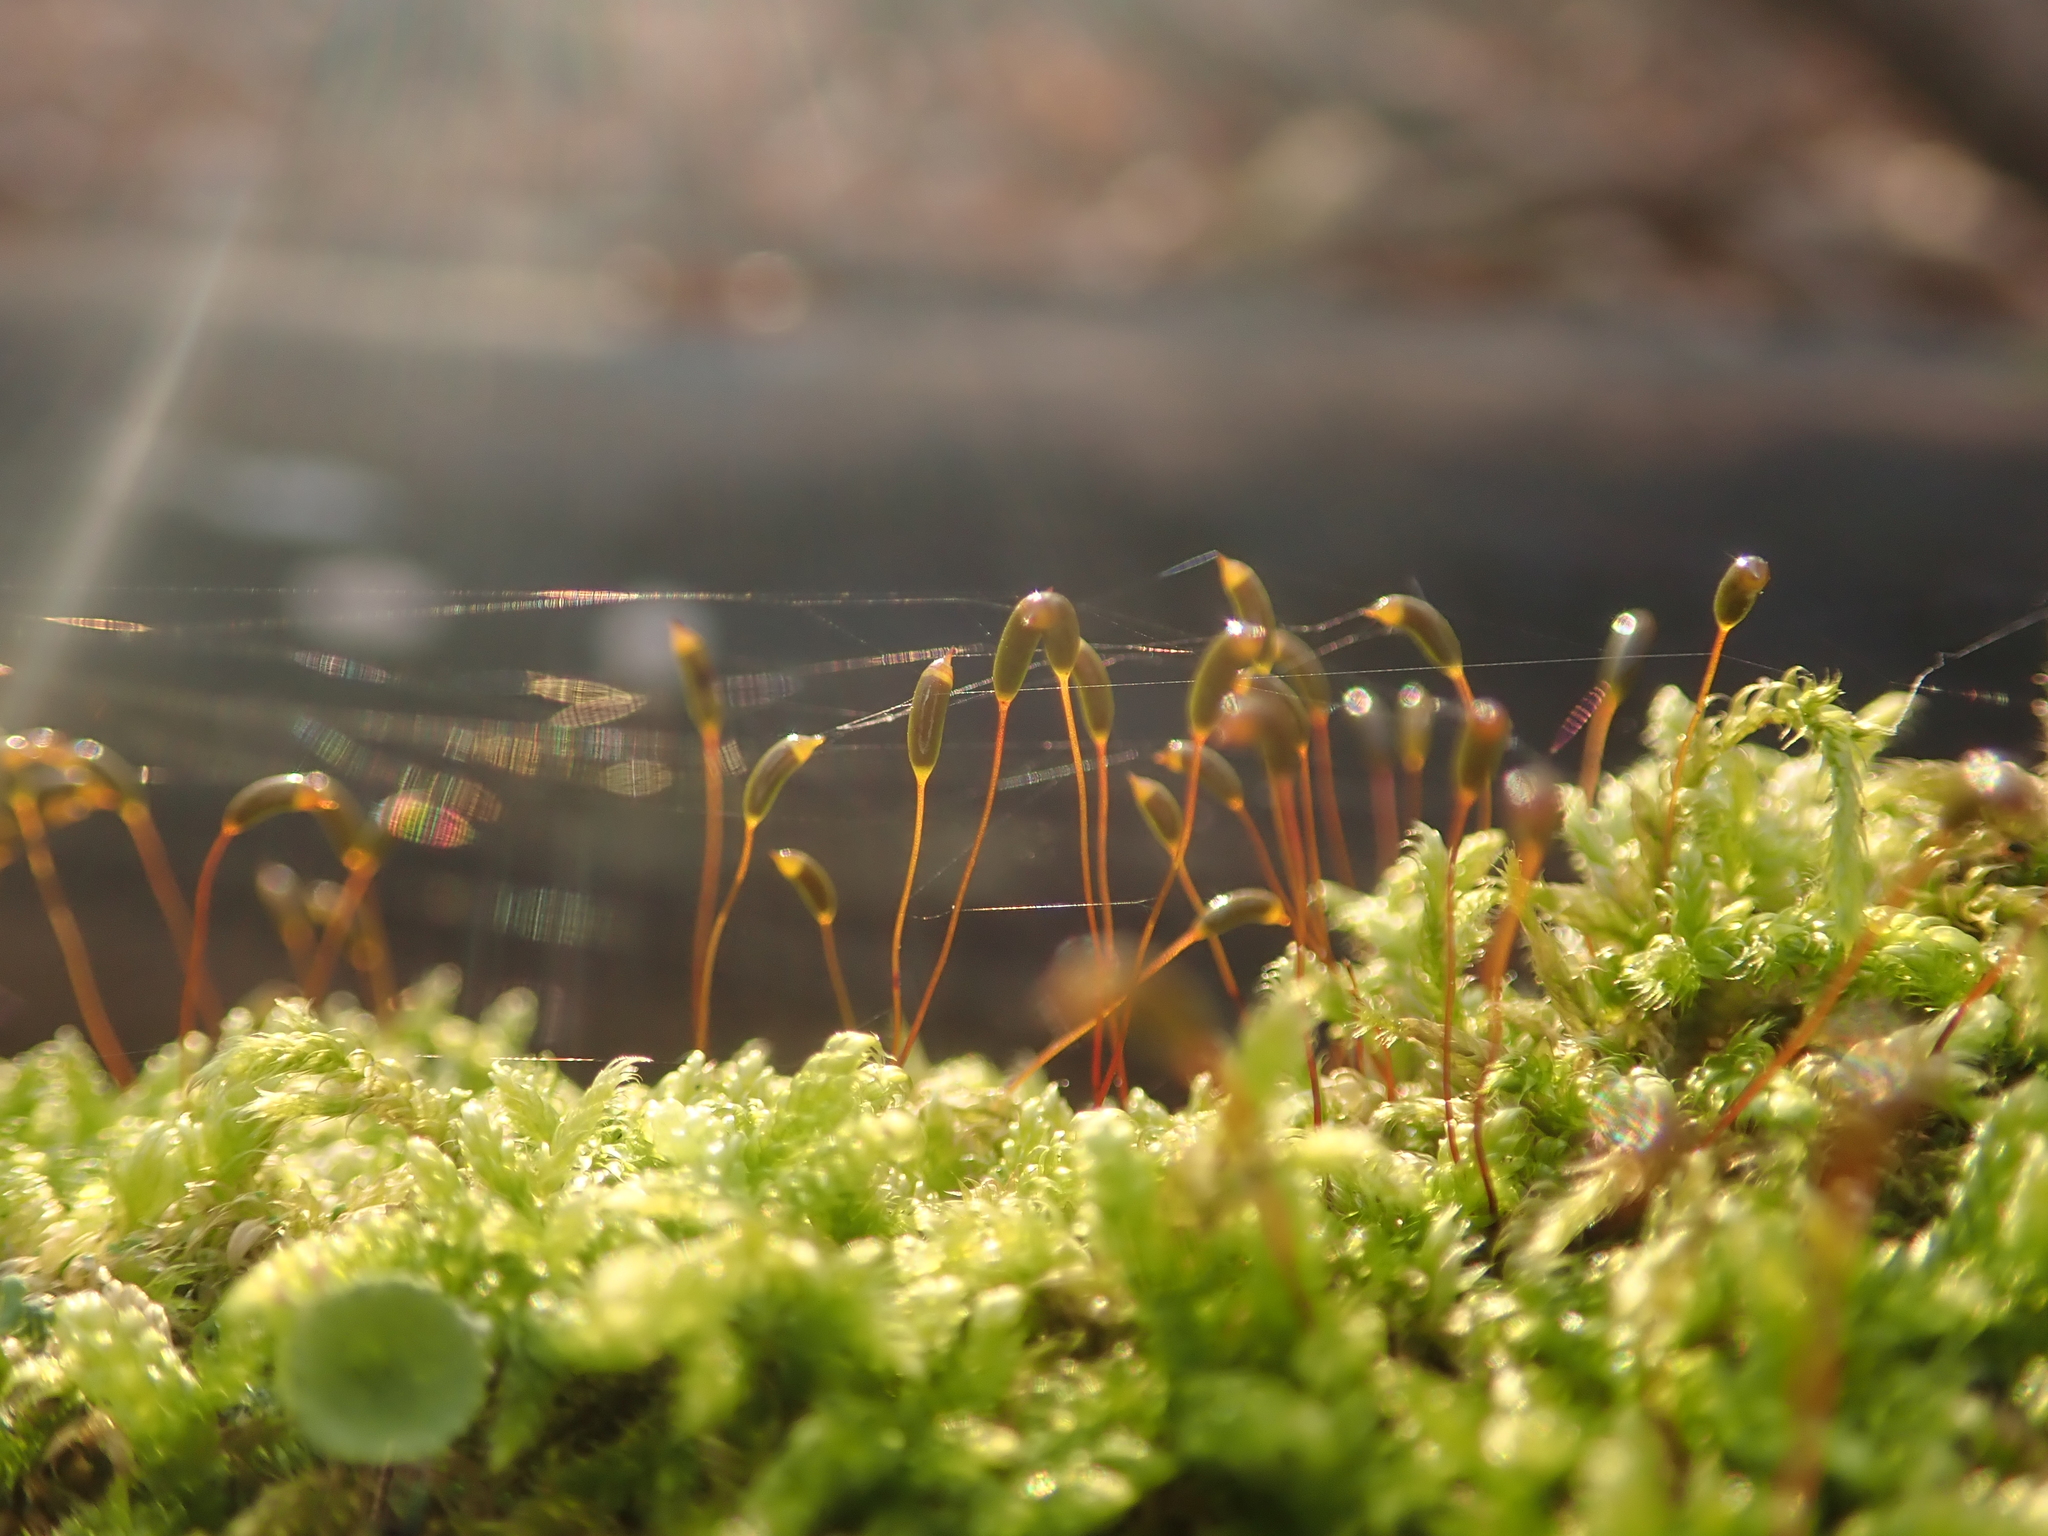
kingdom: Plantae
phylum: Bryophyta
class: Bryopsida
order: Hypnales
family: Hypnaceae
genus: Hypnum
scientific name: Hypnum cupressiforme
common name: Cypress-leaved plait-moss
